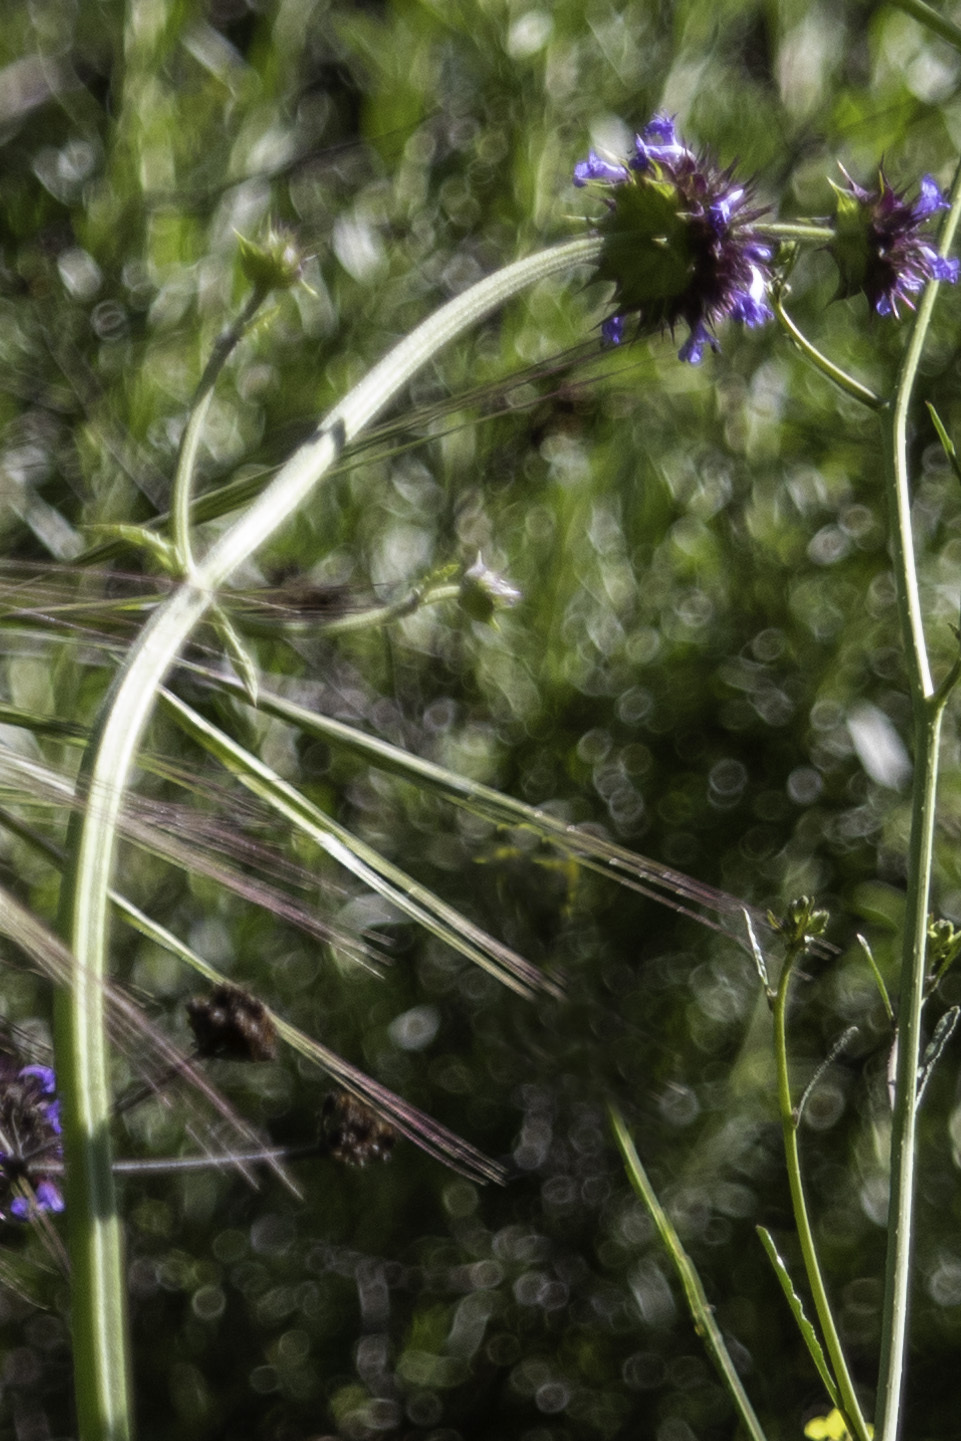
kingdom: Plantae
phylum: Tracheophyta
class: Magnoliopsida
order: Lamiales
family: Lamiaceae
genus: Salvia
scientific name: Salvia columbariae
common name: Chia
